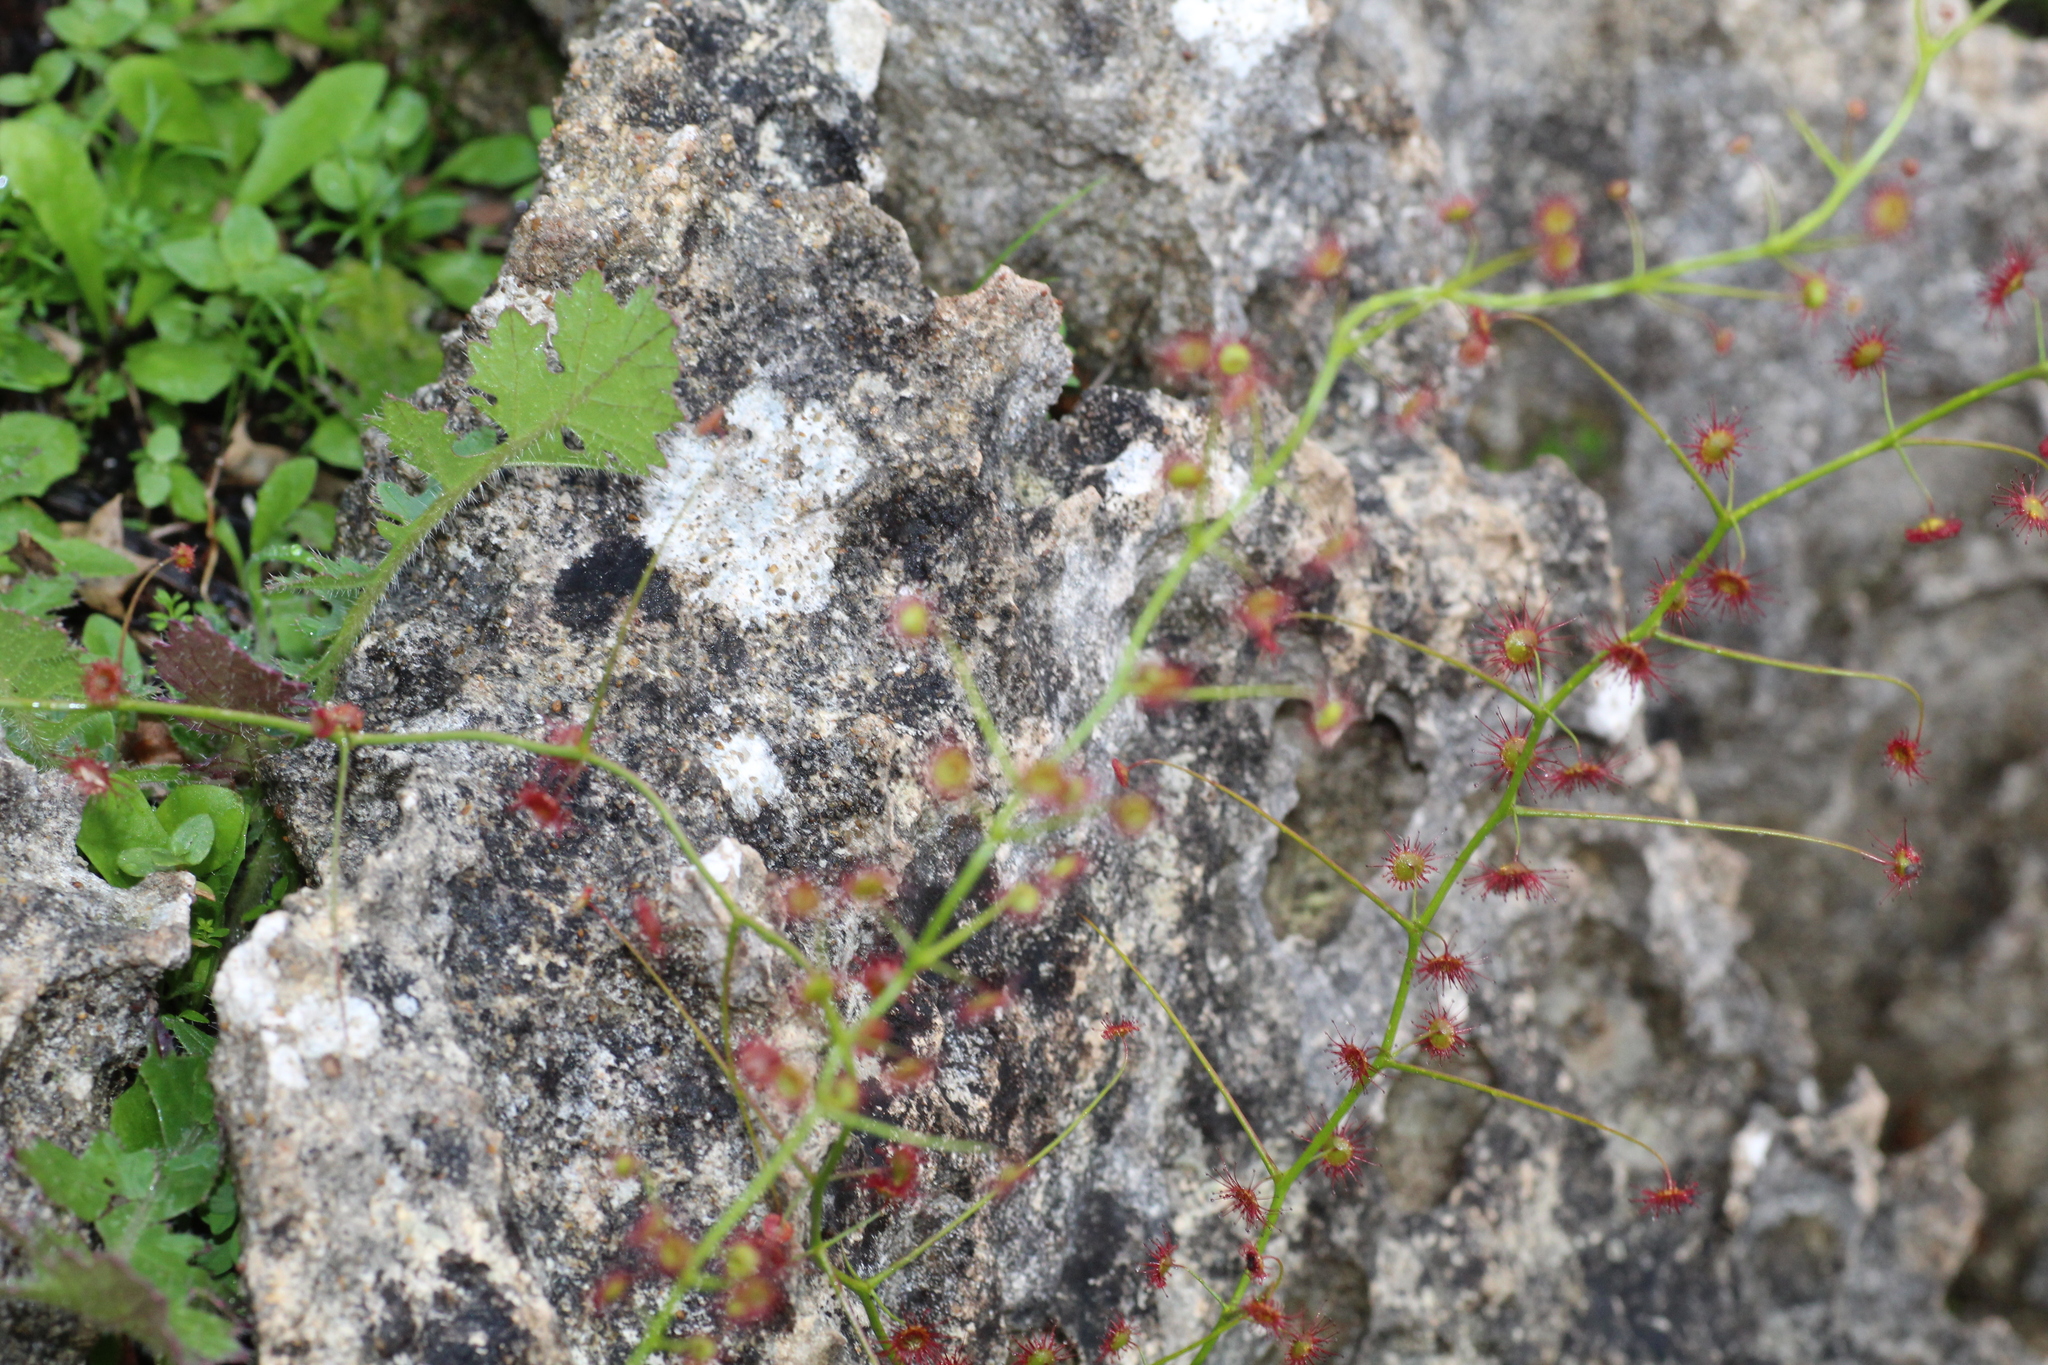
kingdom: Plantae
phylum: Tracheophyta
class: Magnoliopsida
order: Caryophyllales
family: Droseraceae
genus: Drosera
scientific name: Drosera pallida
